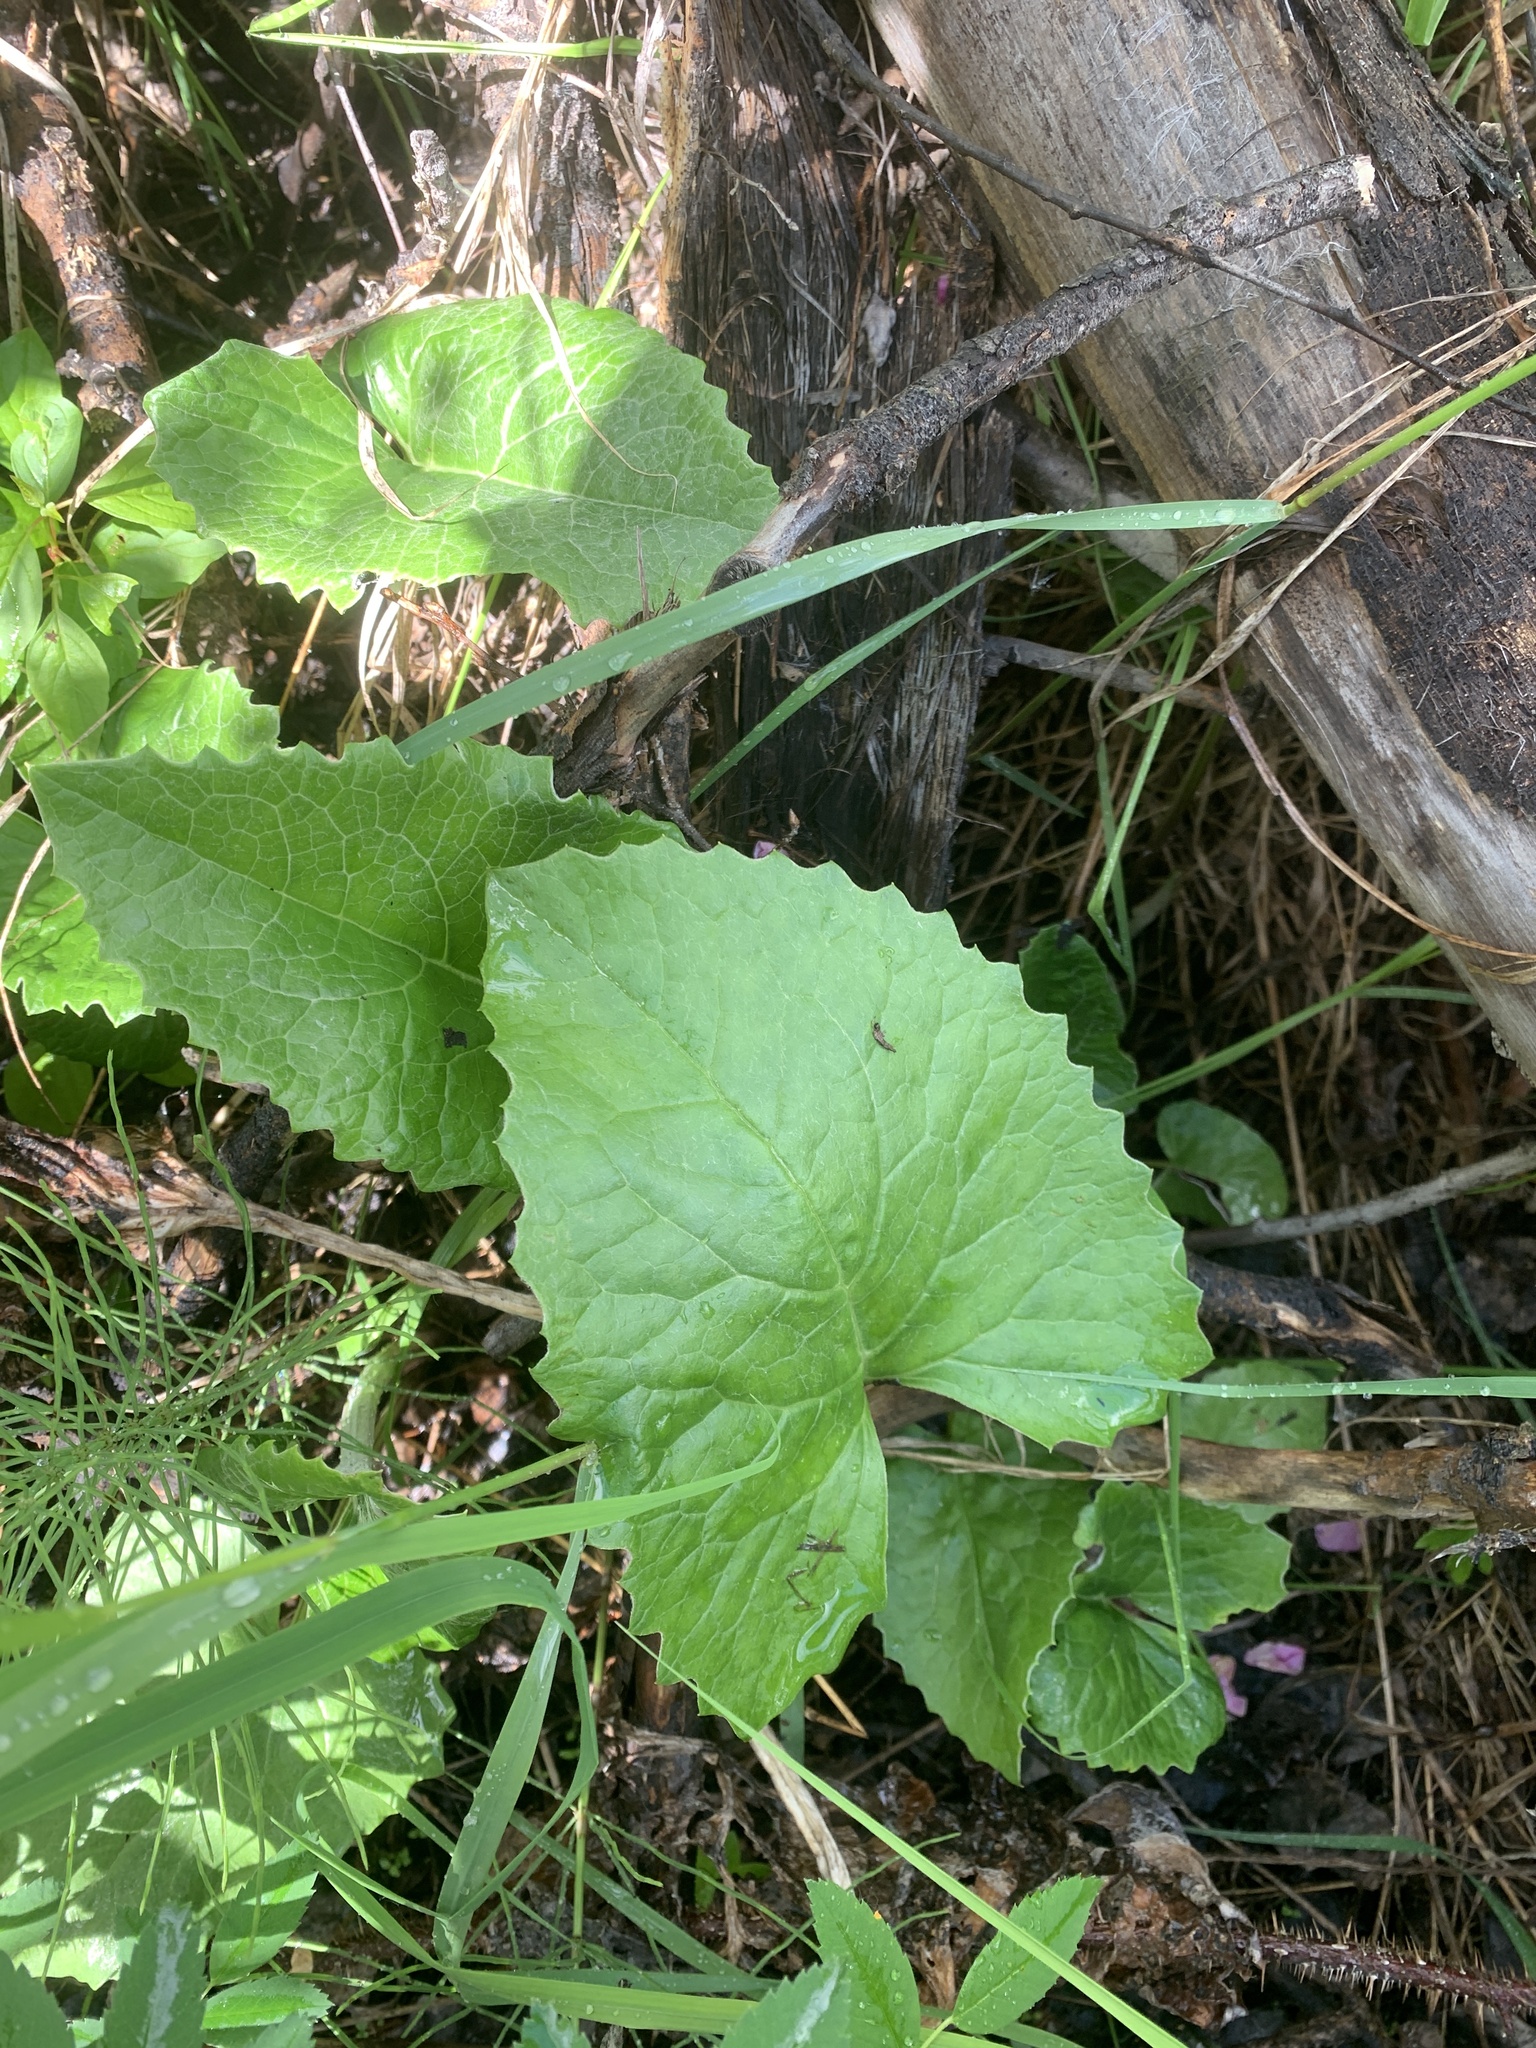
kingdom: Plantae
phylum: Tracheophyta
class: Magnoliopsida
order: Asterales
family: Asteraceae
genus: Petasites
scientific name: Petasites frigidus
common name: Arctic butterbur
